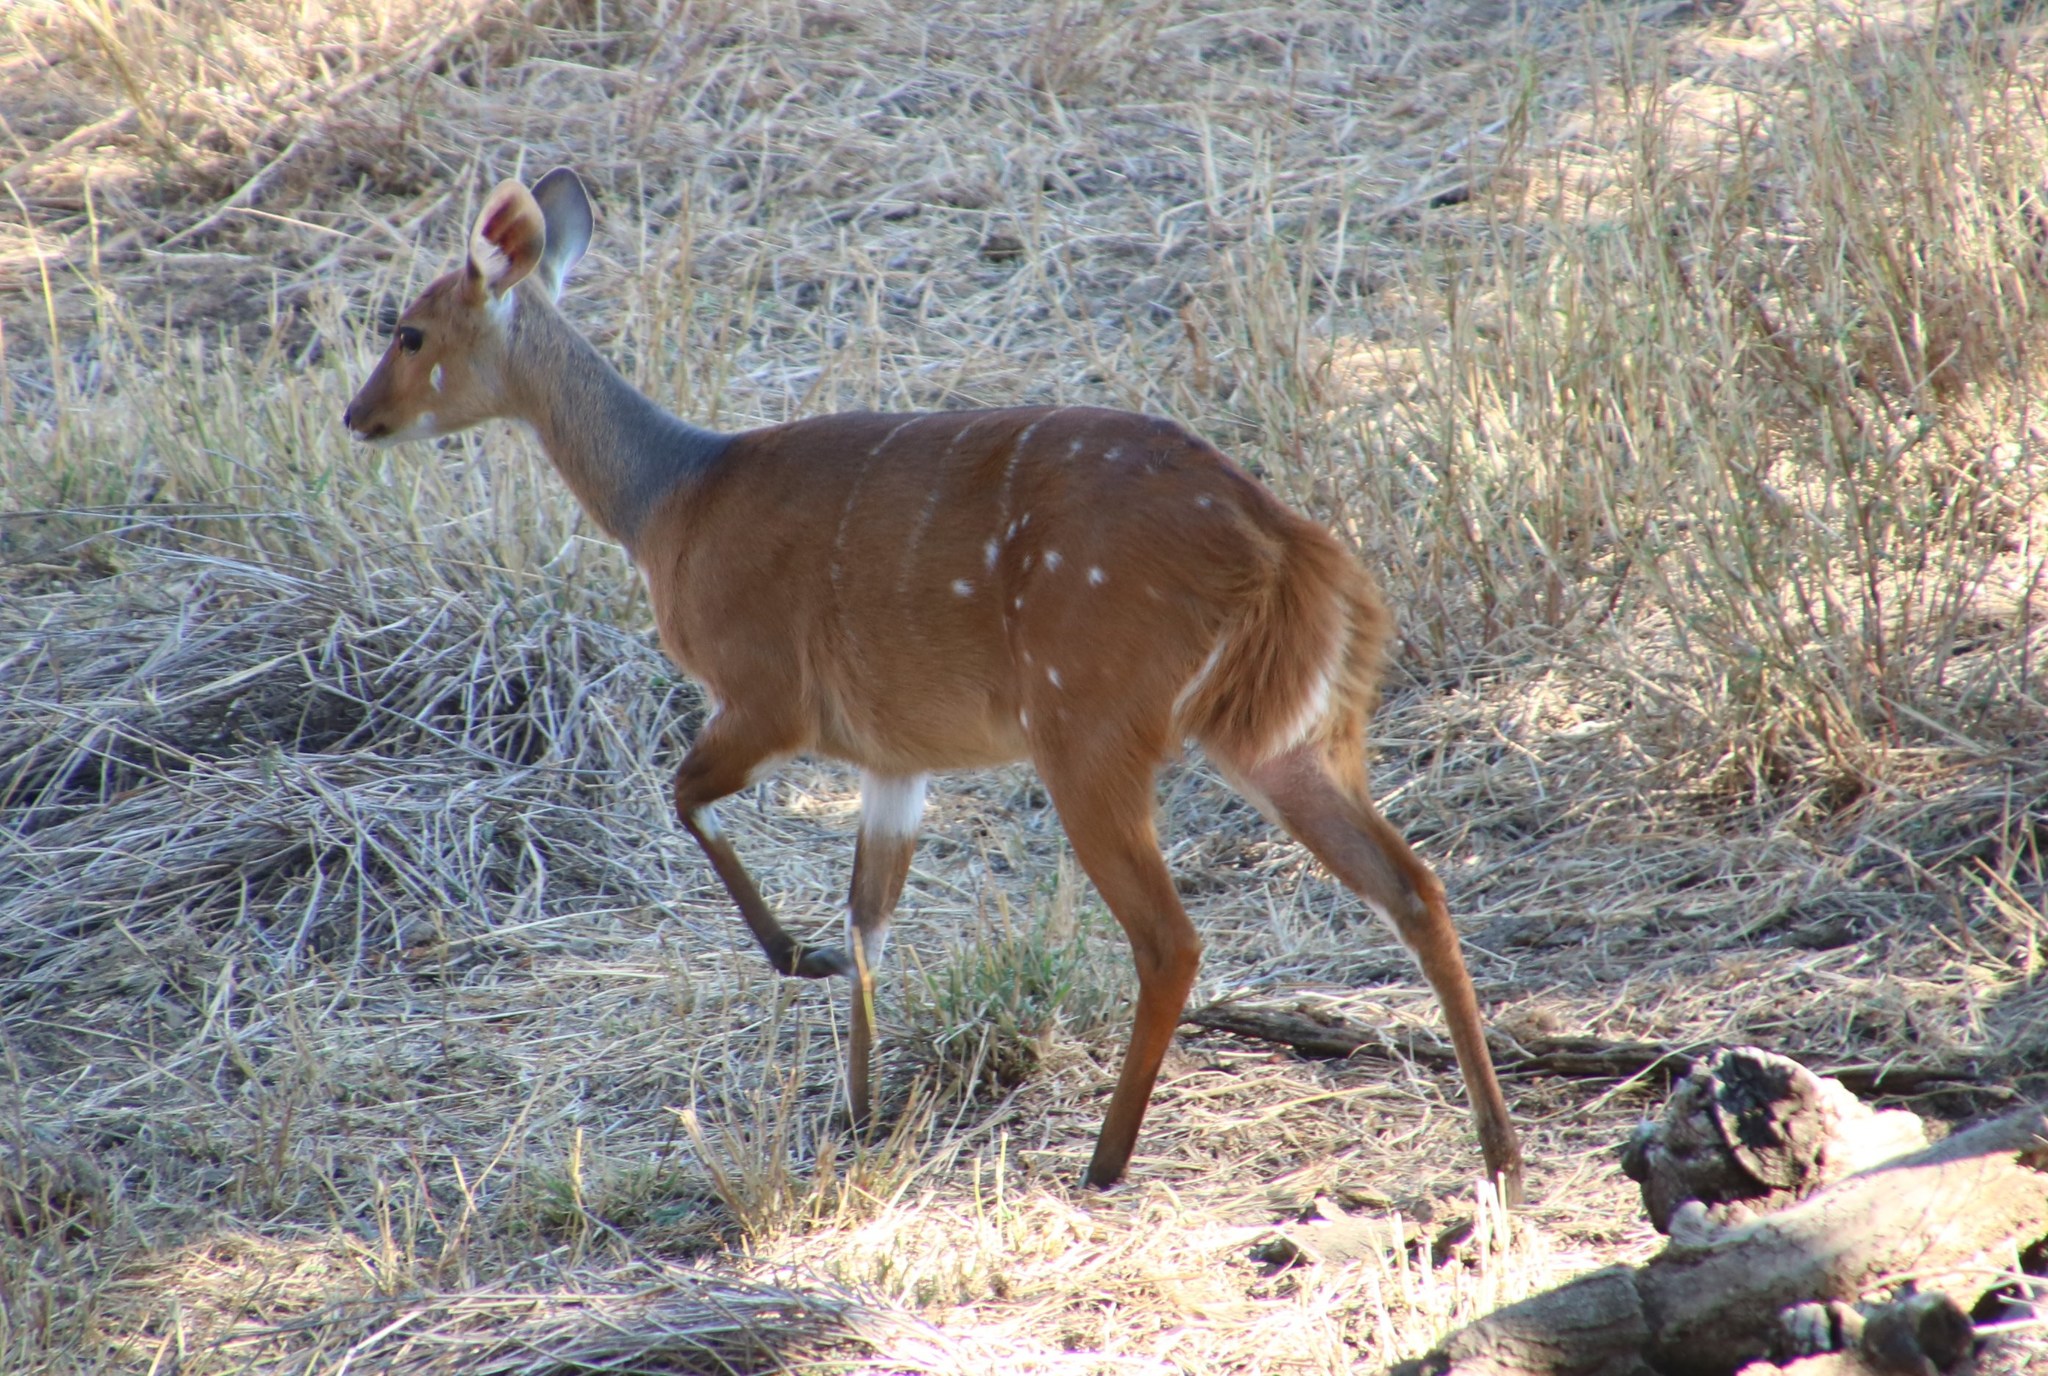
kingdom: Animalia
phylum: Chordata
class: Mammalia
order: Artiodactyla
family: Bovidae
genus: Tragelaphus
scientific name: Tragelaphus scriptus
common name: Bushbuck
